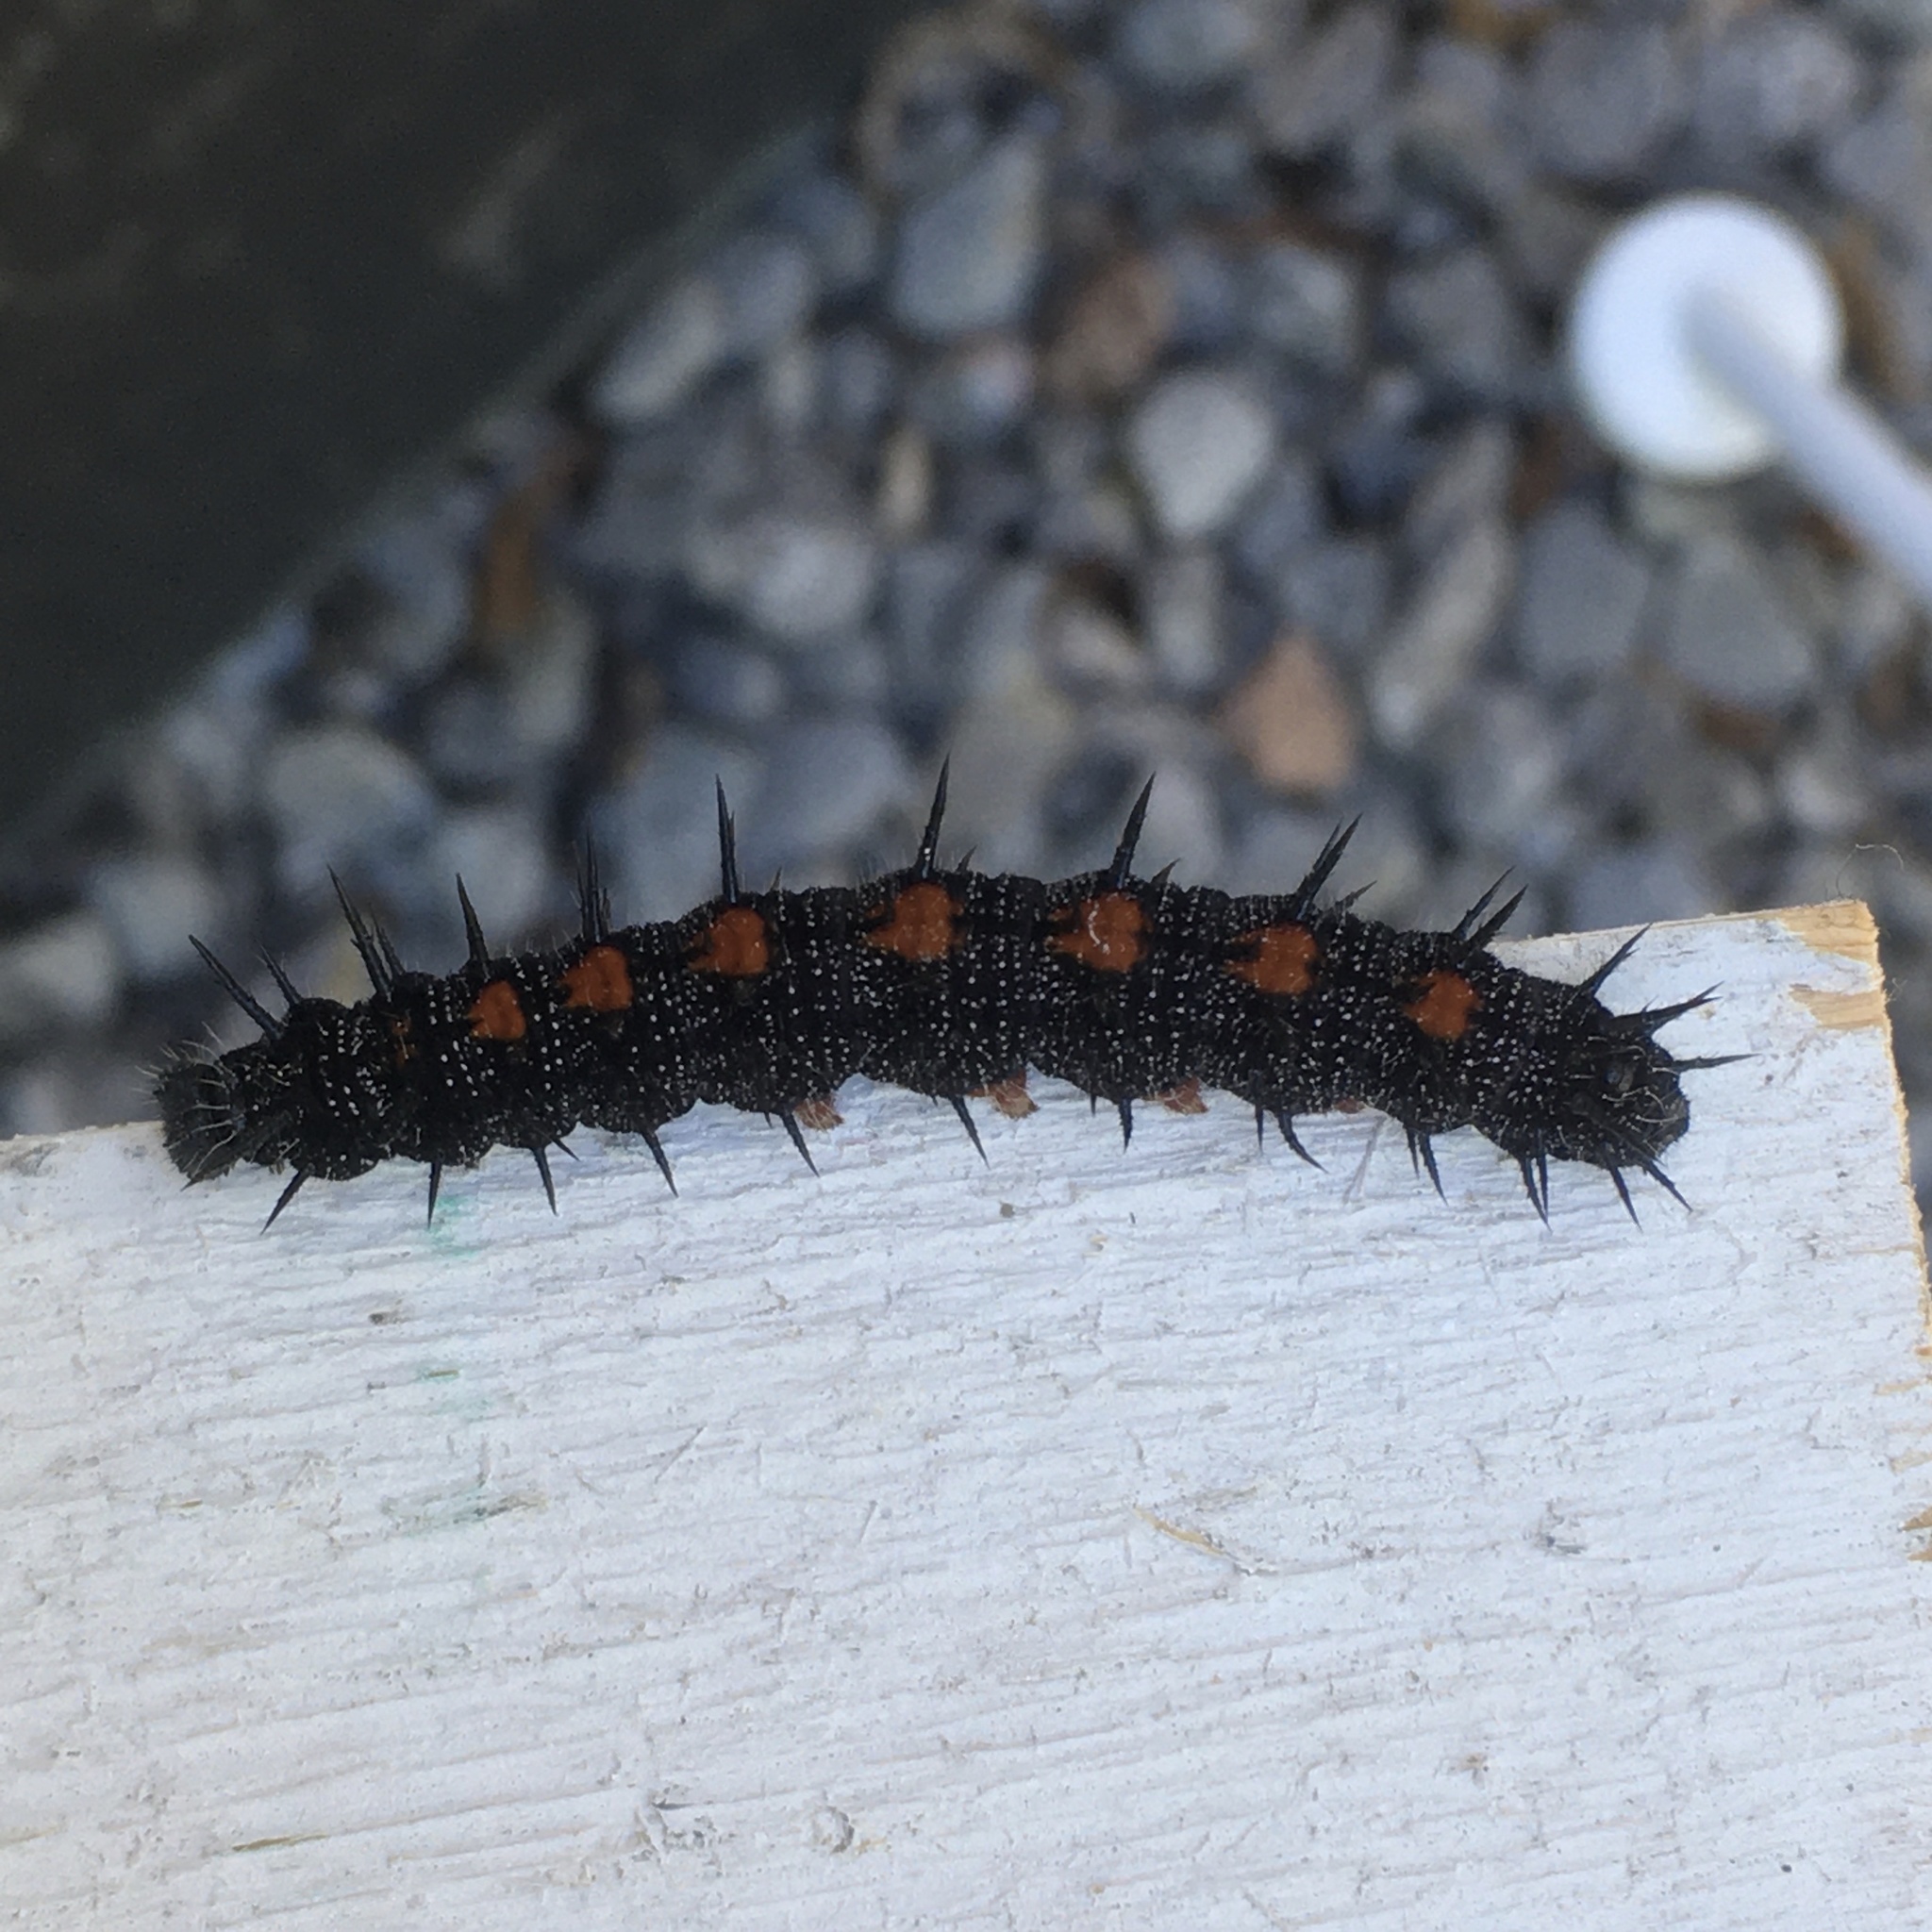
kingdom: Animalia
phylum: Arthropoda
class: Insecta
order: Lepidoptera
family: Nymphalidae
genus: Nymphalis
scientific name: Nymphalis antiopa
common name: Camberwell beauty
